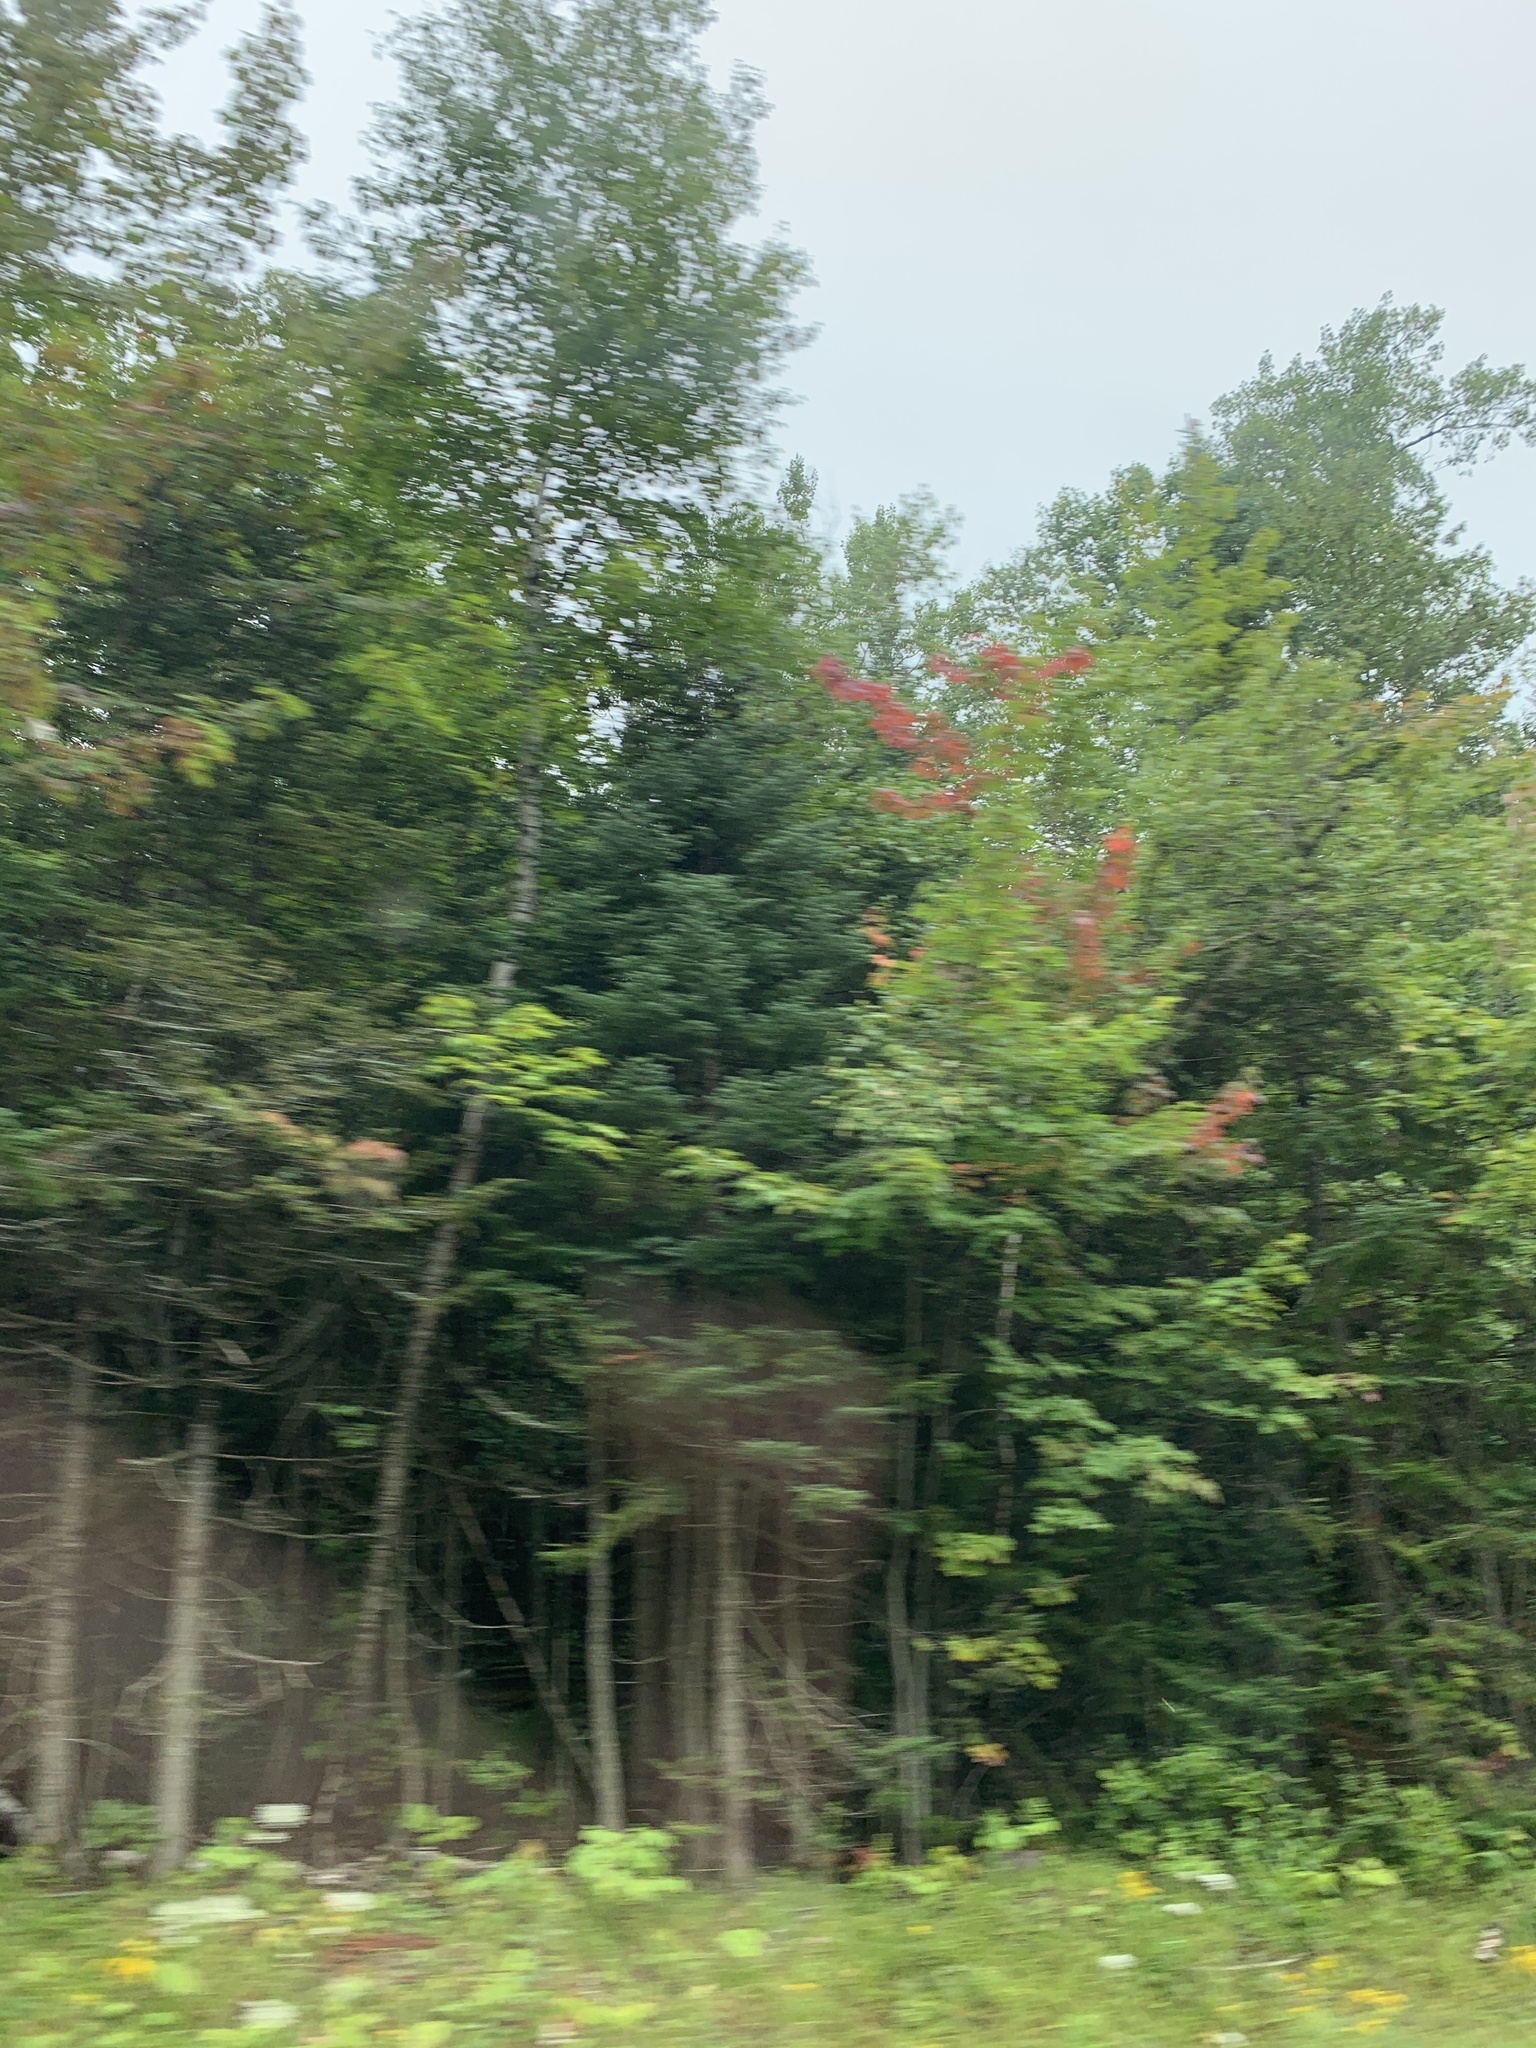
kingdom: Plantae
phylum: Tracheophyta
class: Magnoliopsida
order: Sapindales
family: Sapindaceae
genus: Acer
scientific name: Acer rubrum
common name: Red maple
